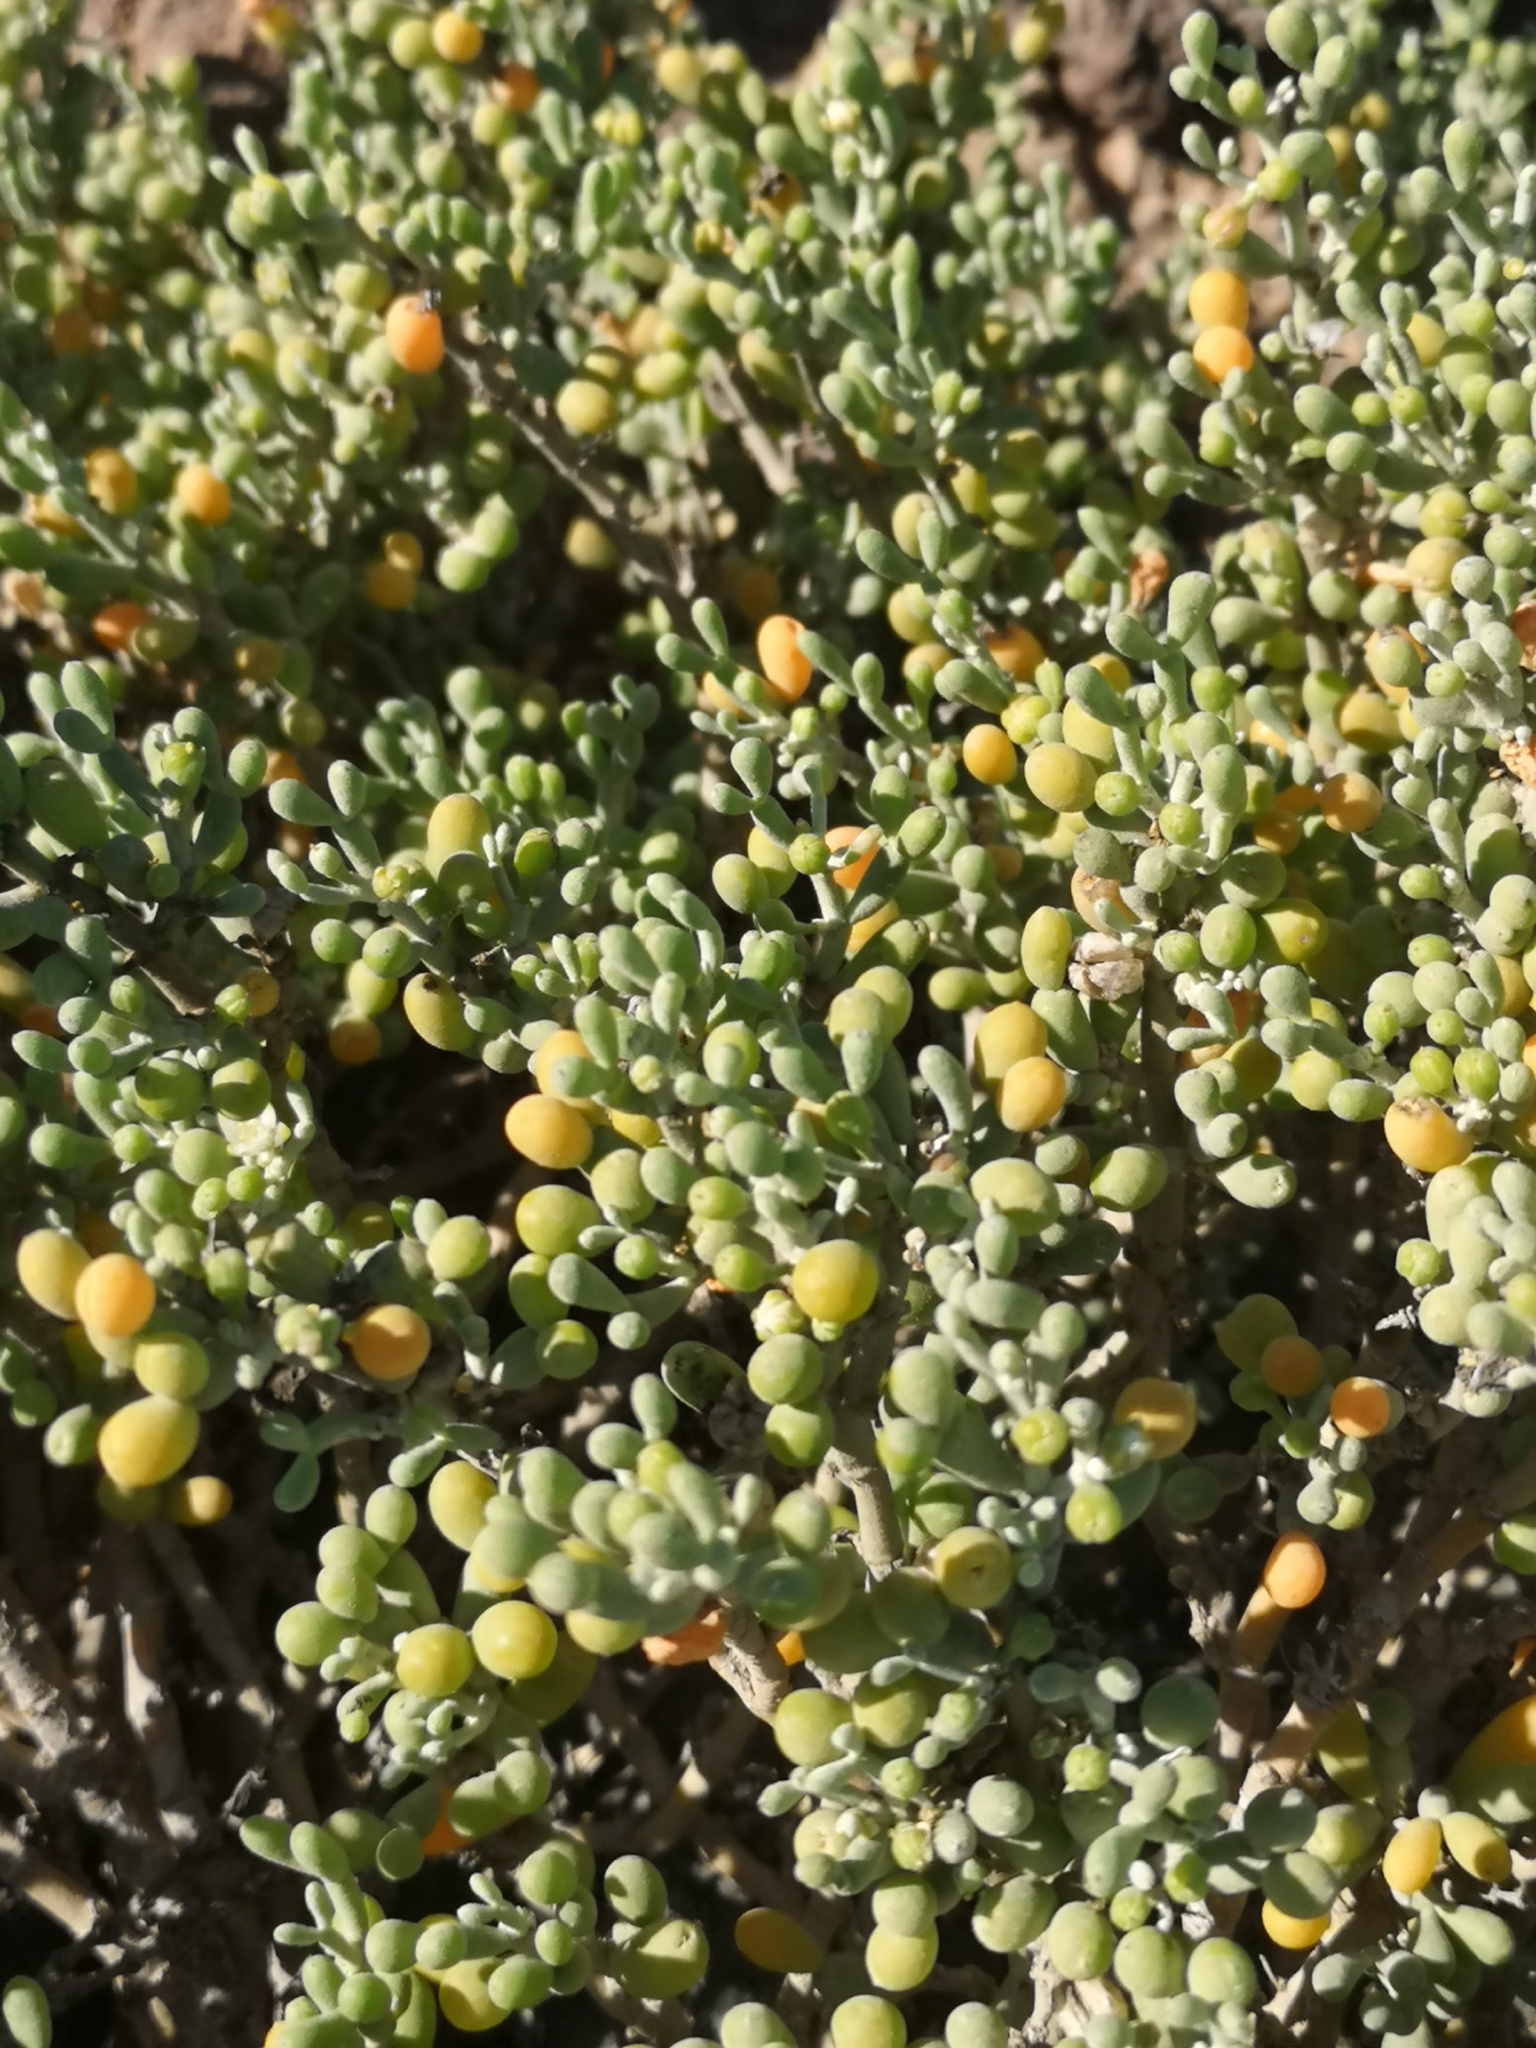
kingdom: Plantae
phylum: Tracheophyta
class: Magnoliopsida
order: Zygophyllales
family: Zygophyllaceae
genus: Tetraena
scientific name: Tetraena fontanesii
